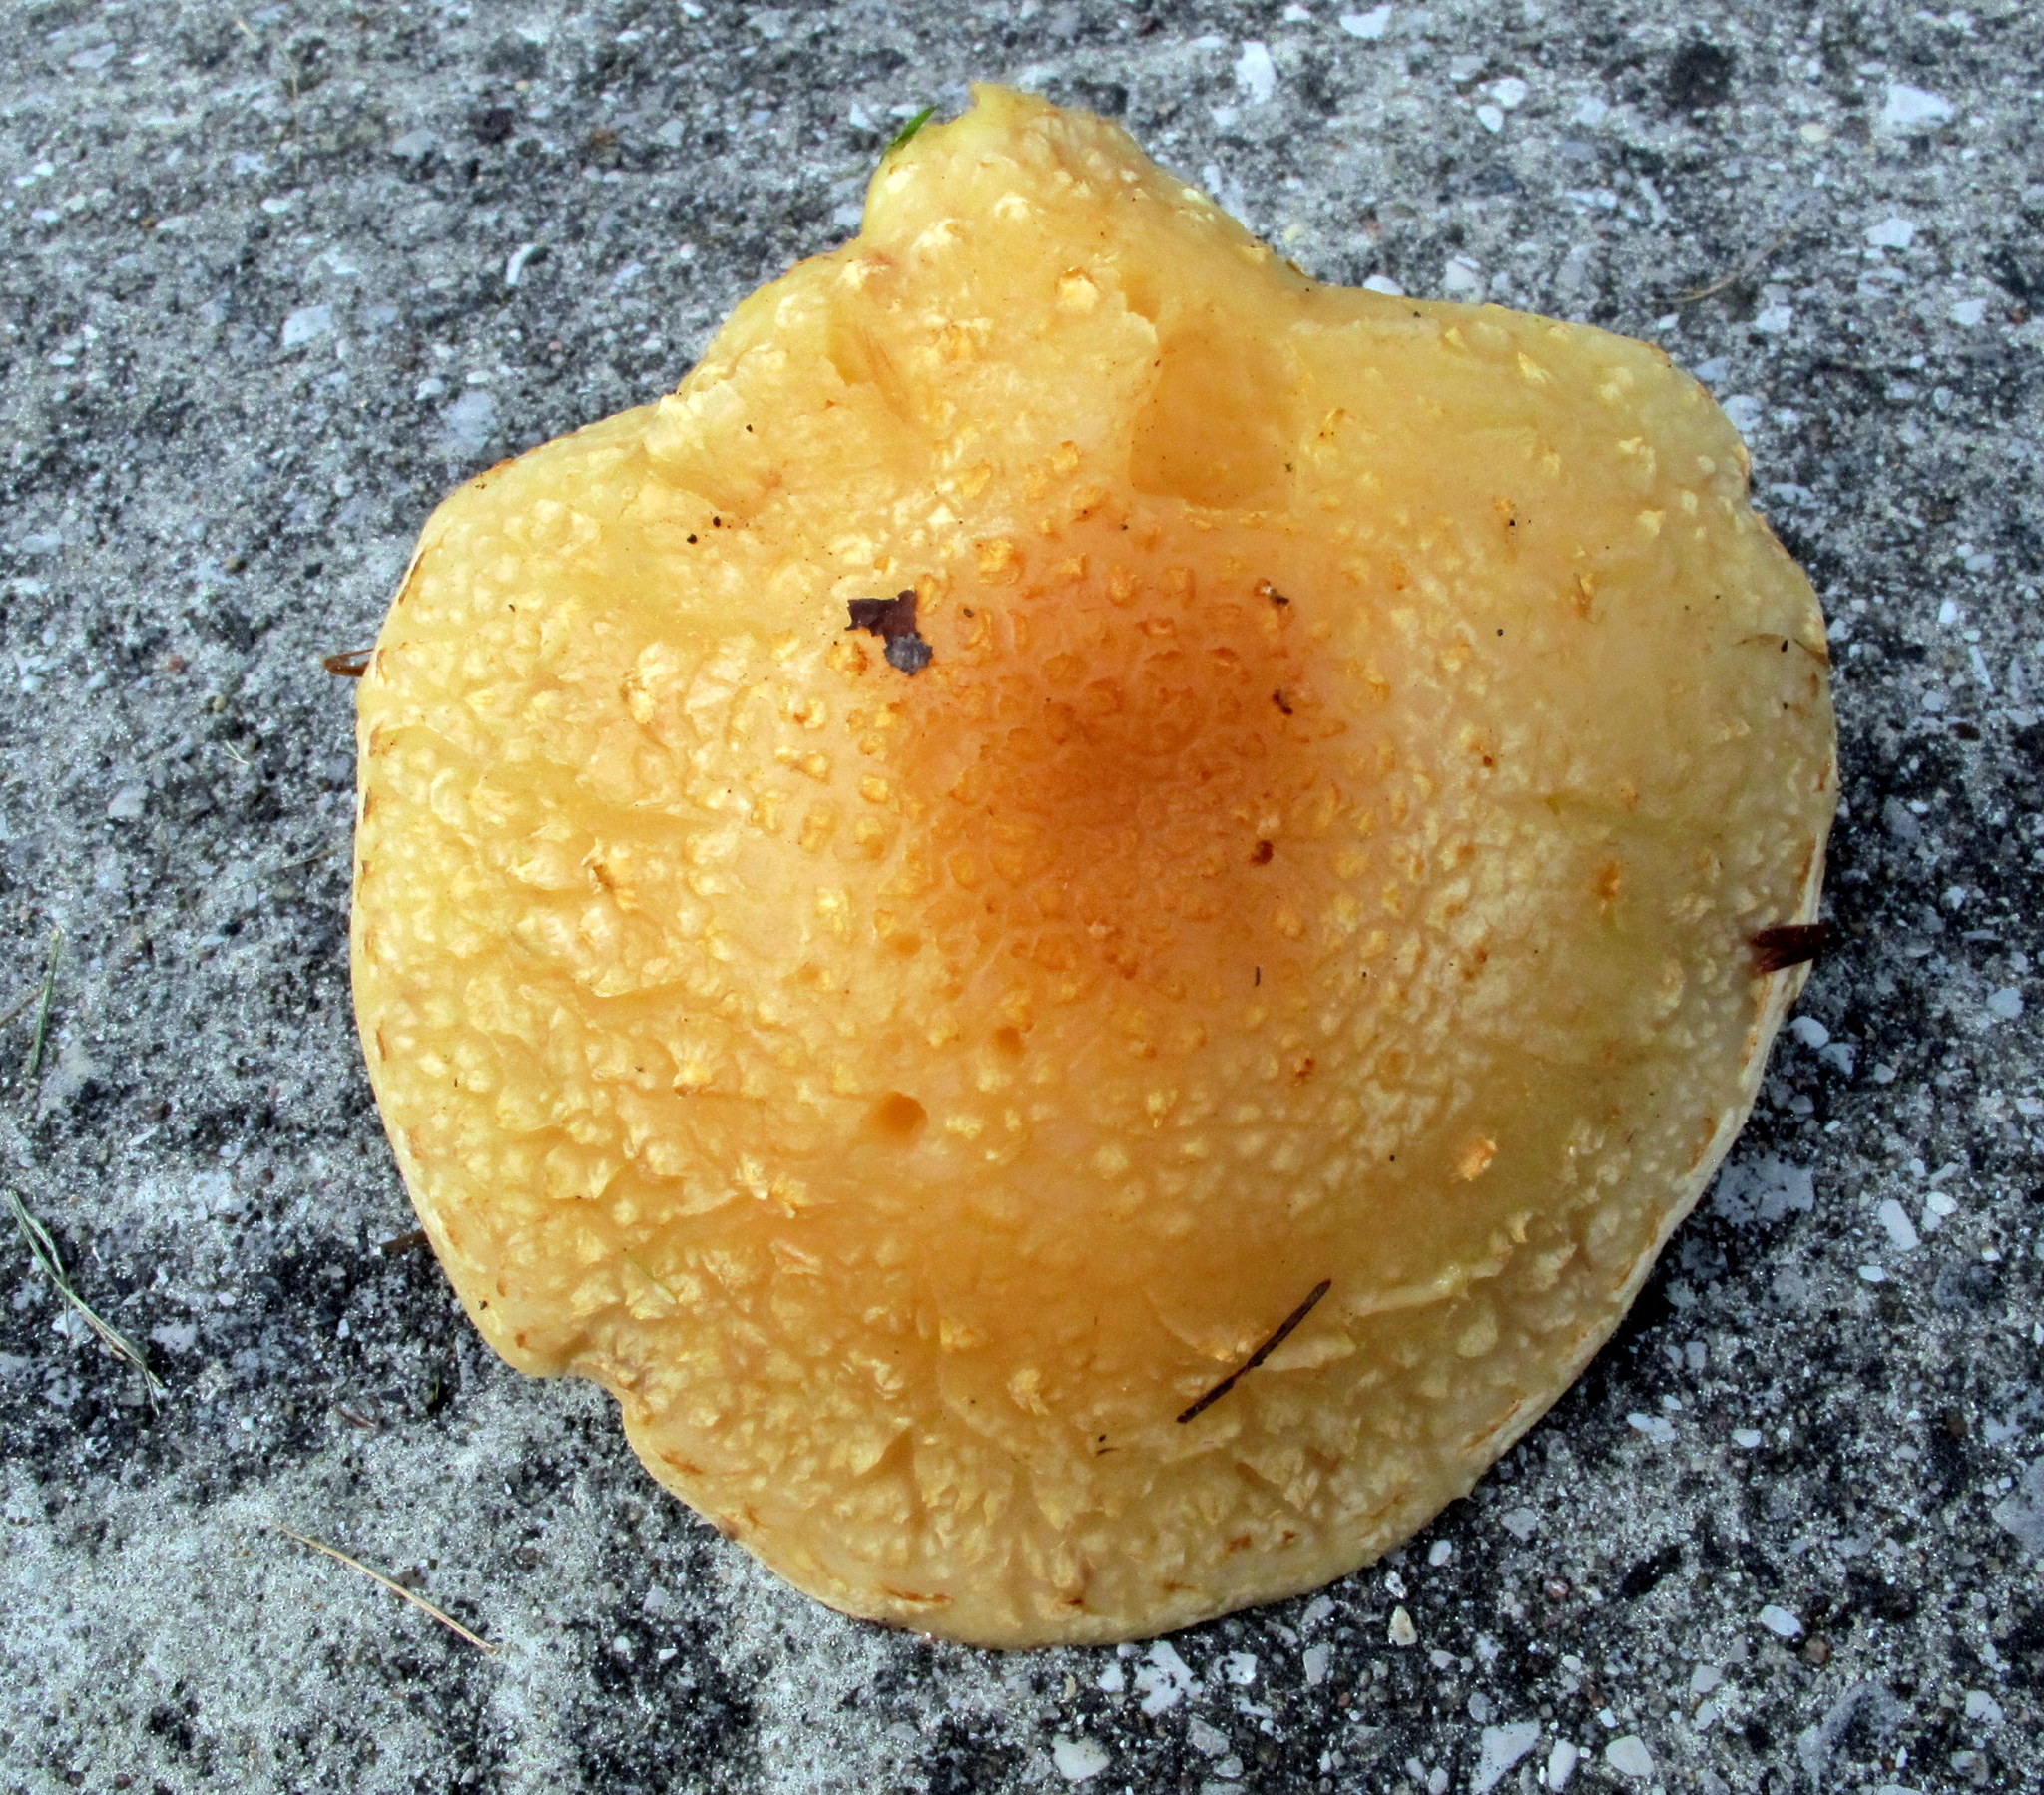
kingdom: Fungi
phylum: Basidiomycota
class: Agaricomycetes
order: Agaricales
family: Strophariaceae
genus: Pholiota
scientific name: Pholiota populnea
